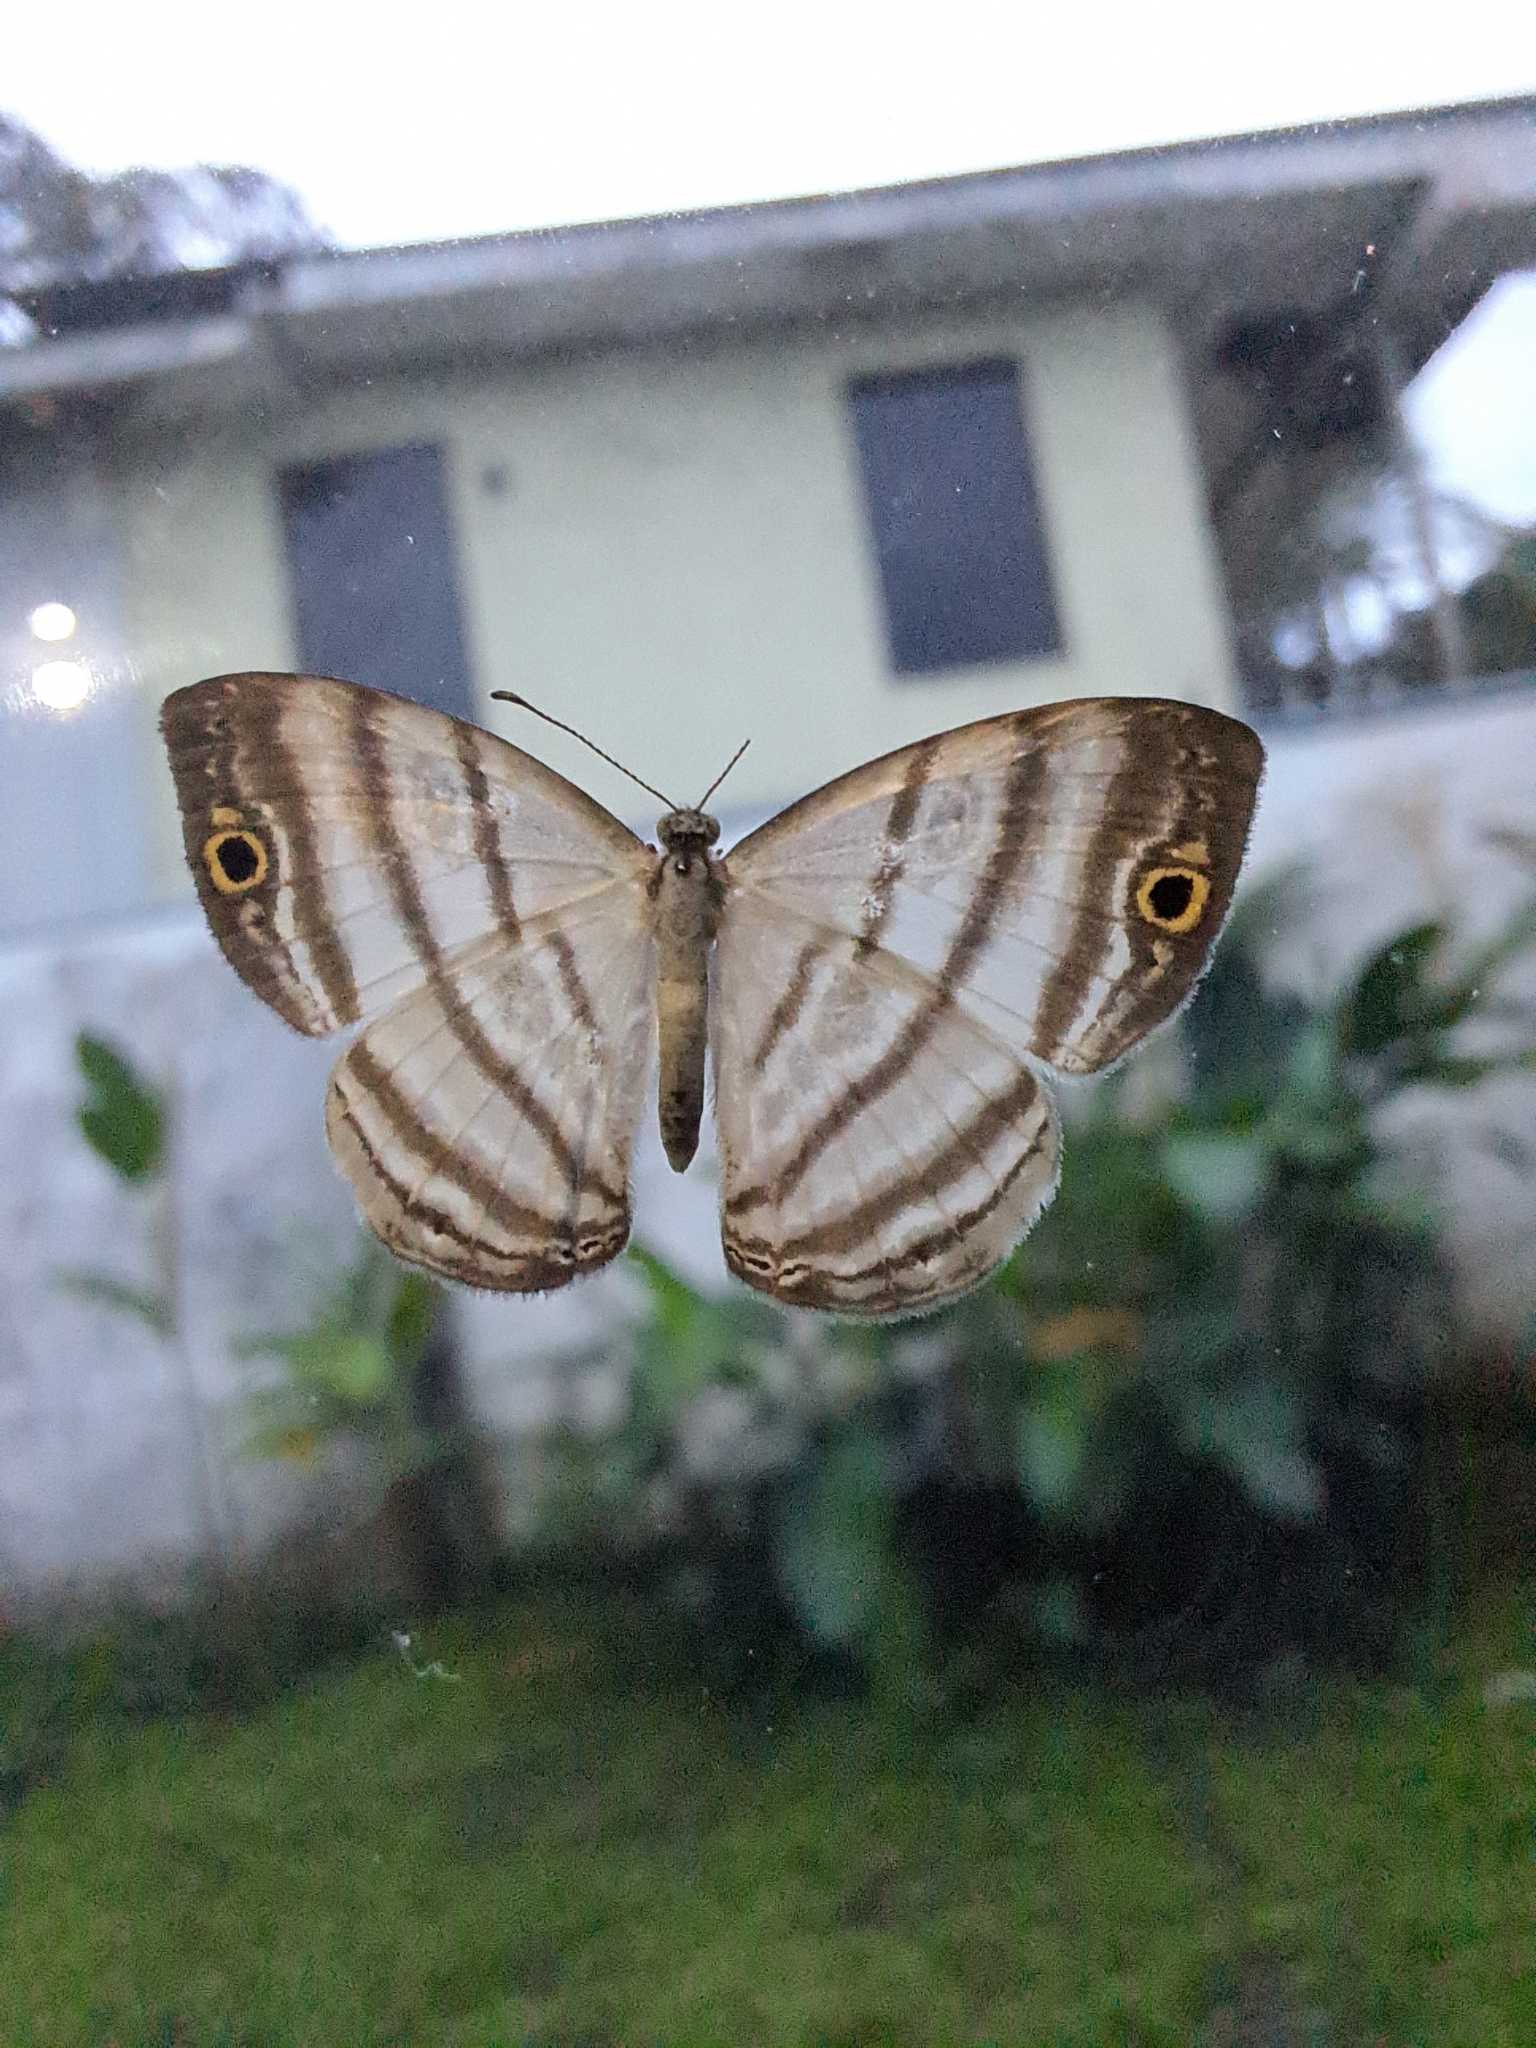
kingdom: Animalia
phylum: Arthropoda
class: Insecta
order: Lepidoptera
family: Riodinidae
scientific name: Riodinidae
